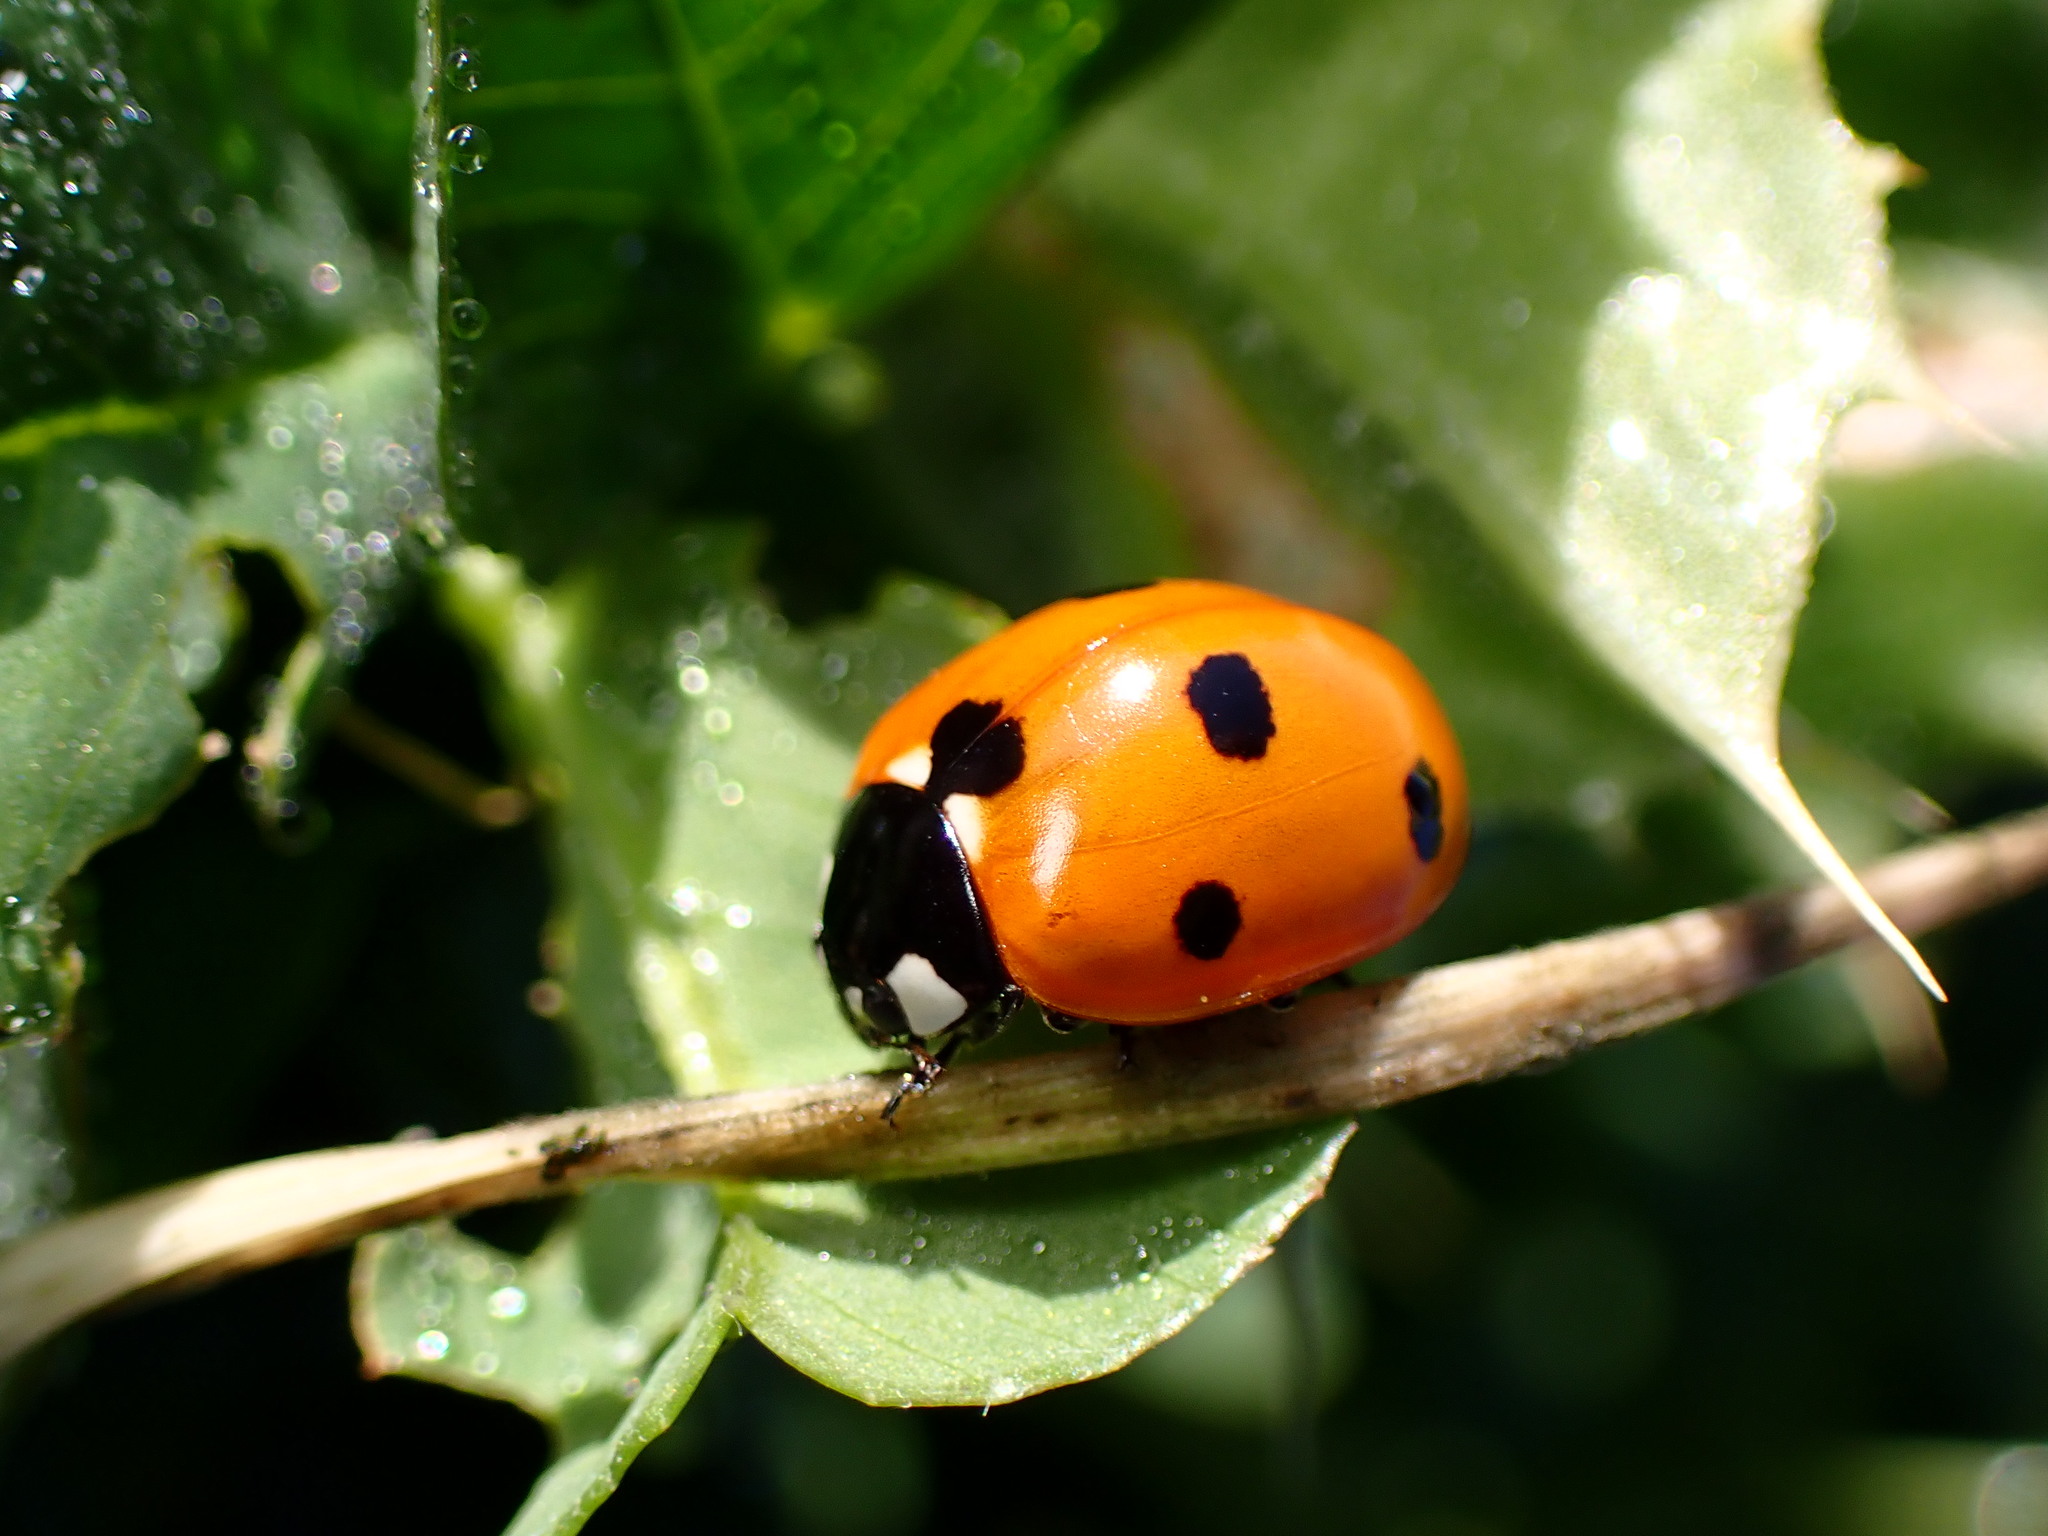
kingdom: Animalia
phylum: Arthropoda
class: Insecta
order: Coleoptera
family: Coccinellidae
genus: Coccinella
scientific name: Coccinella septempunctata
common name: Sevenspotted lady beetle
